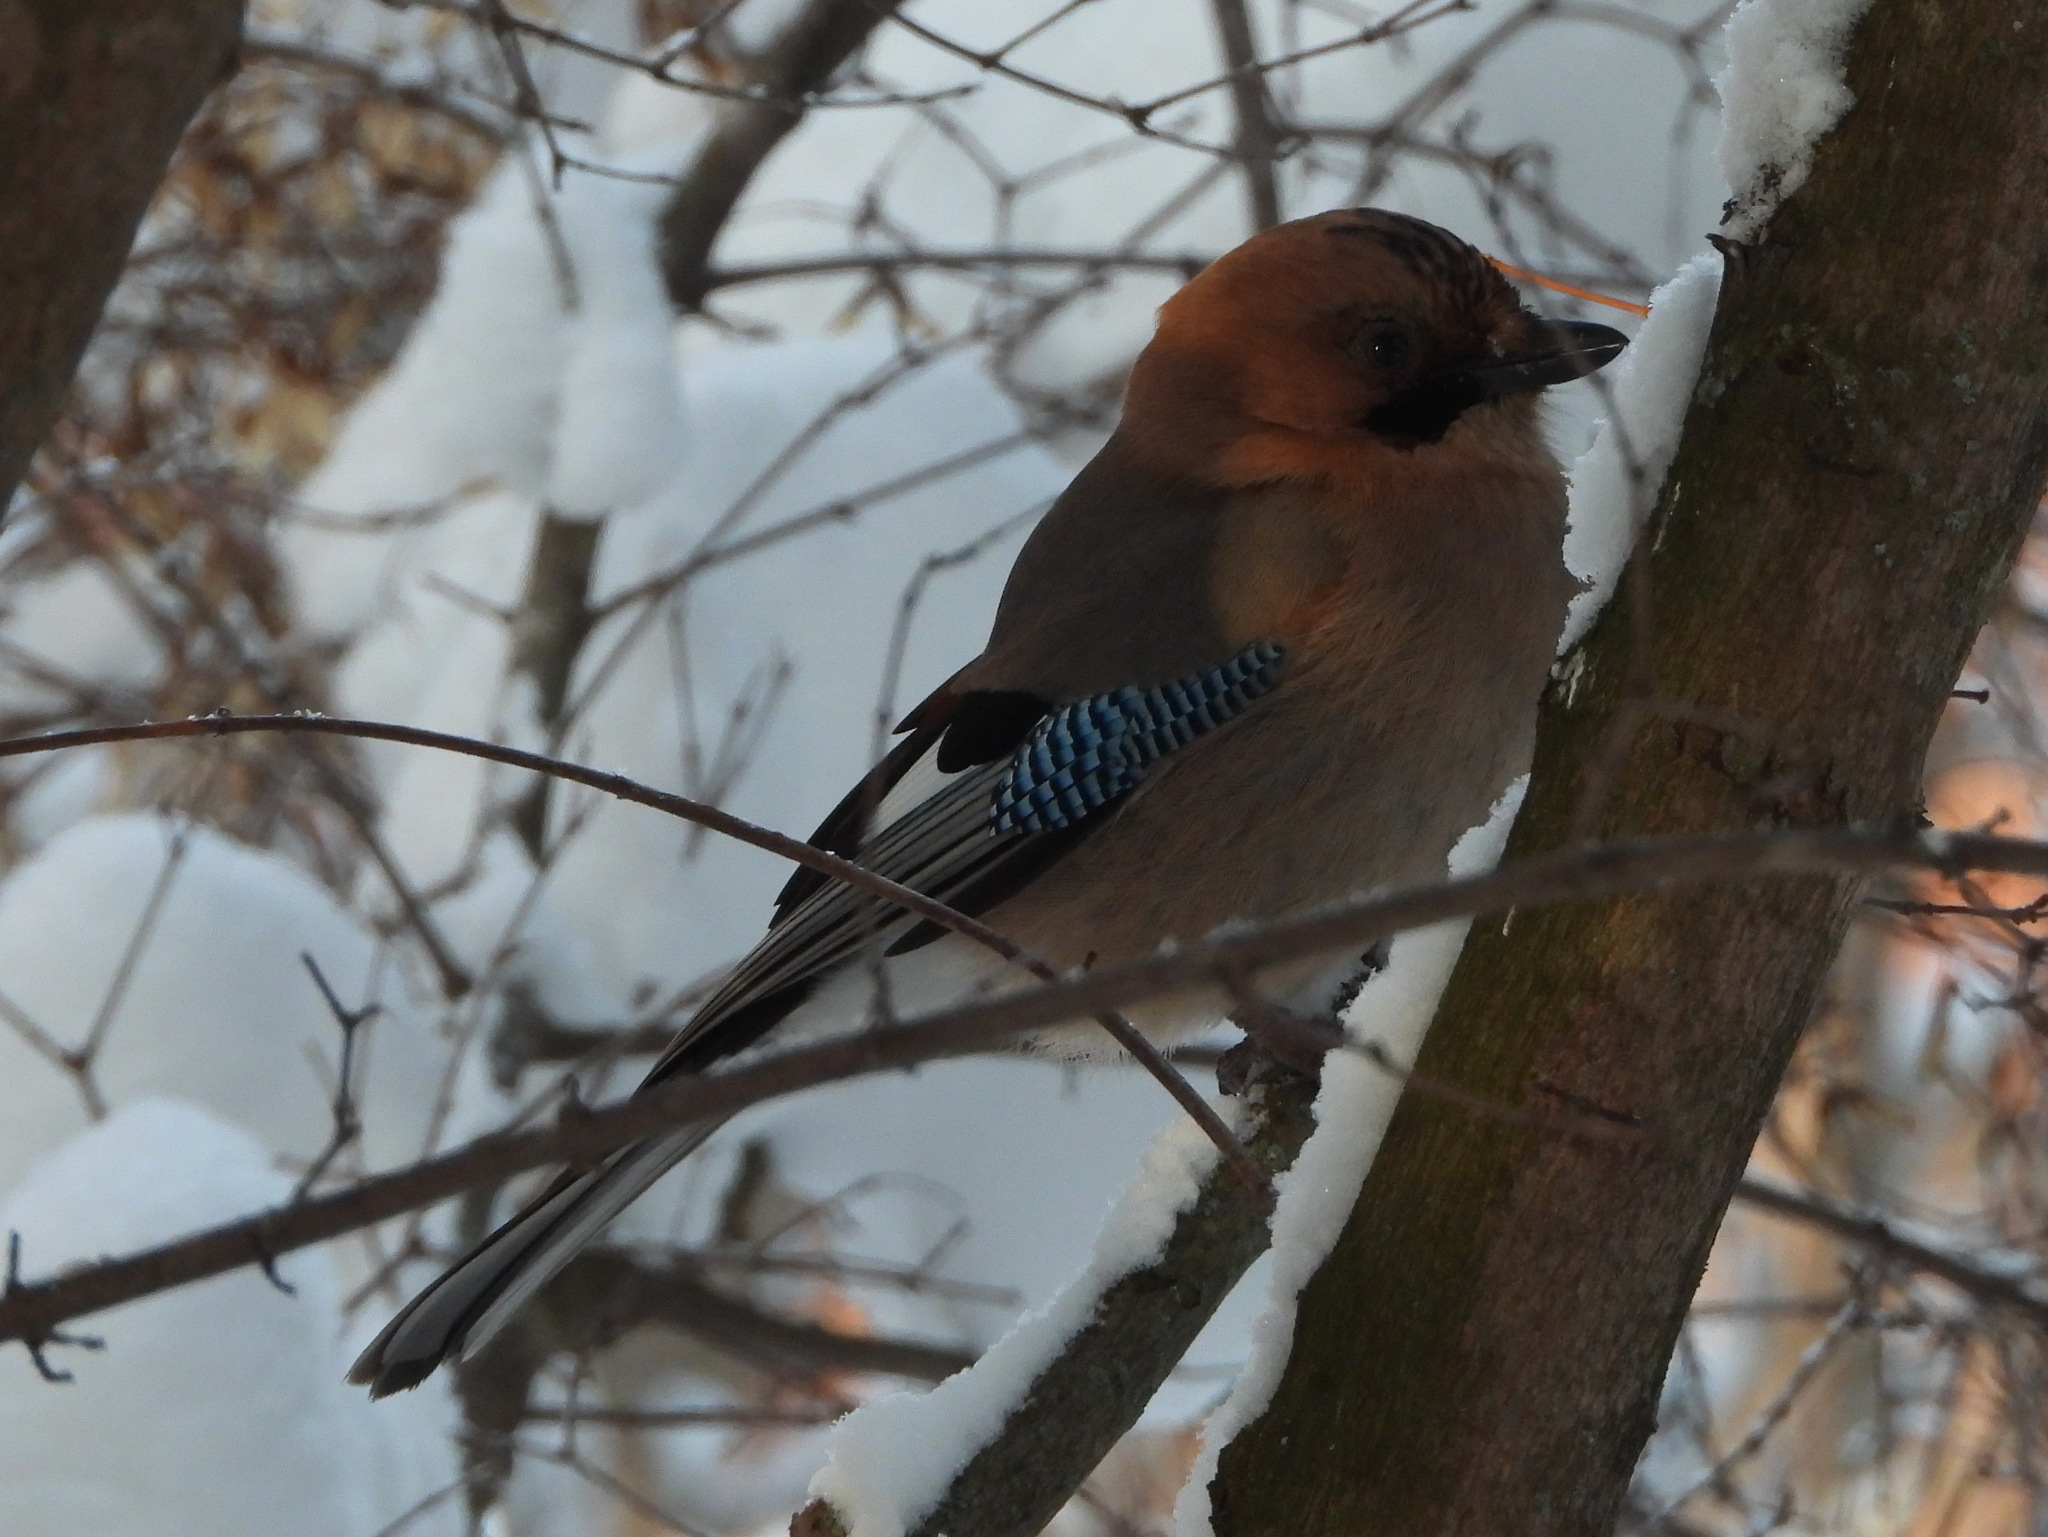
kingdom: Animalia
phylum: Chordata
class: Aves
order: Passeriformes
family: Corvidae
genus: Garrulus
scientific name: Garrulus glandarius
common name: Eurasian jay
